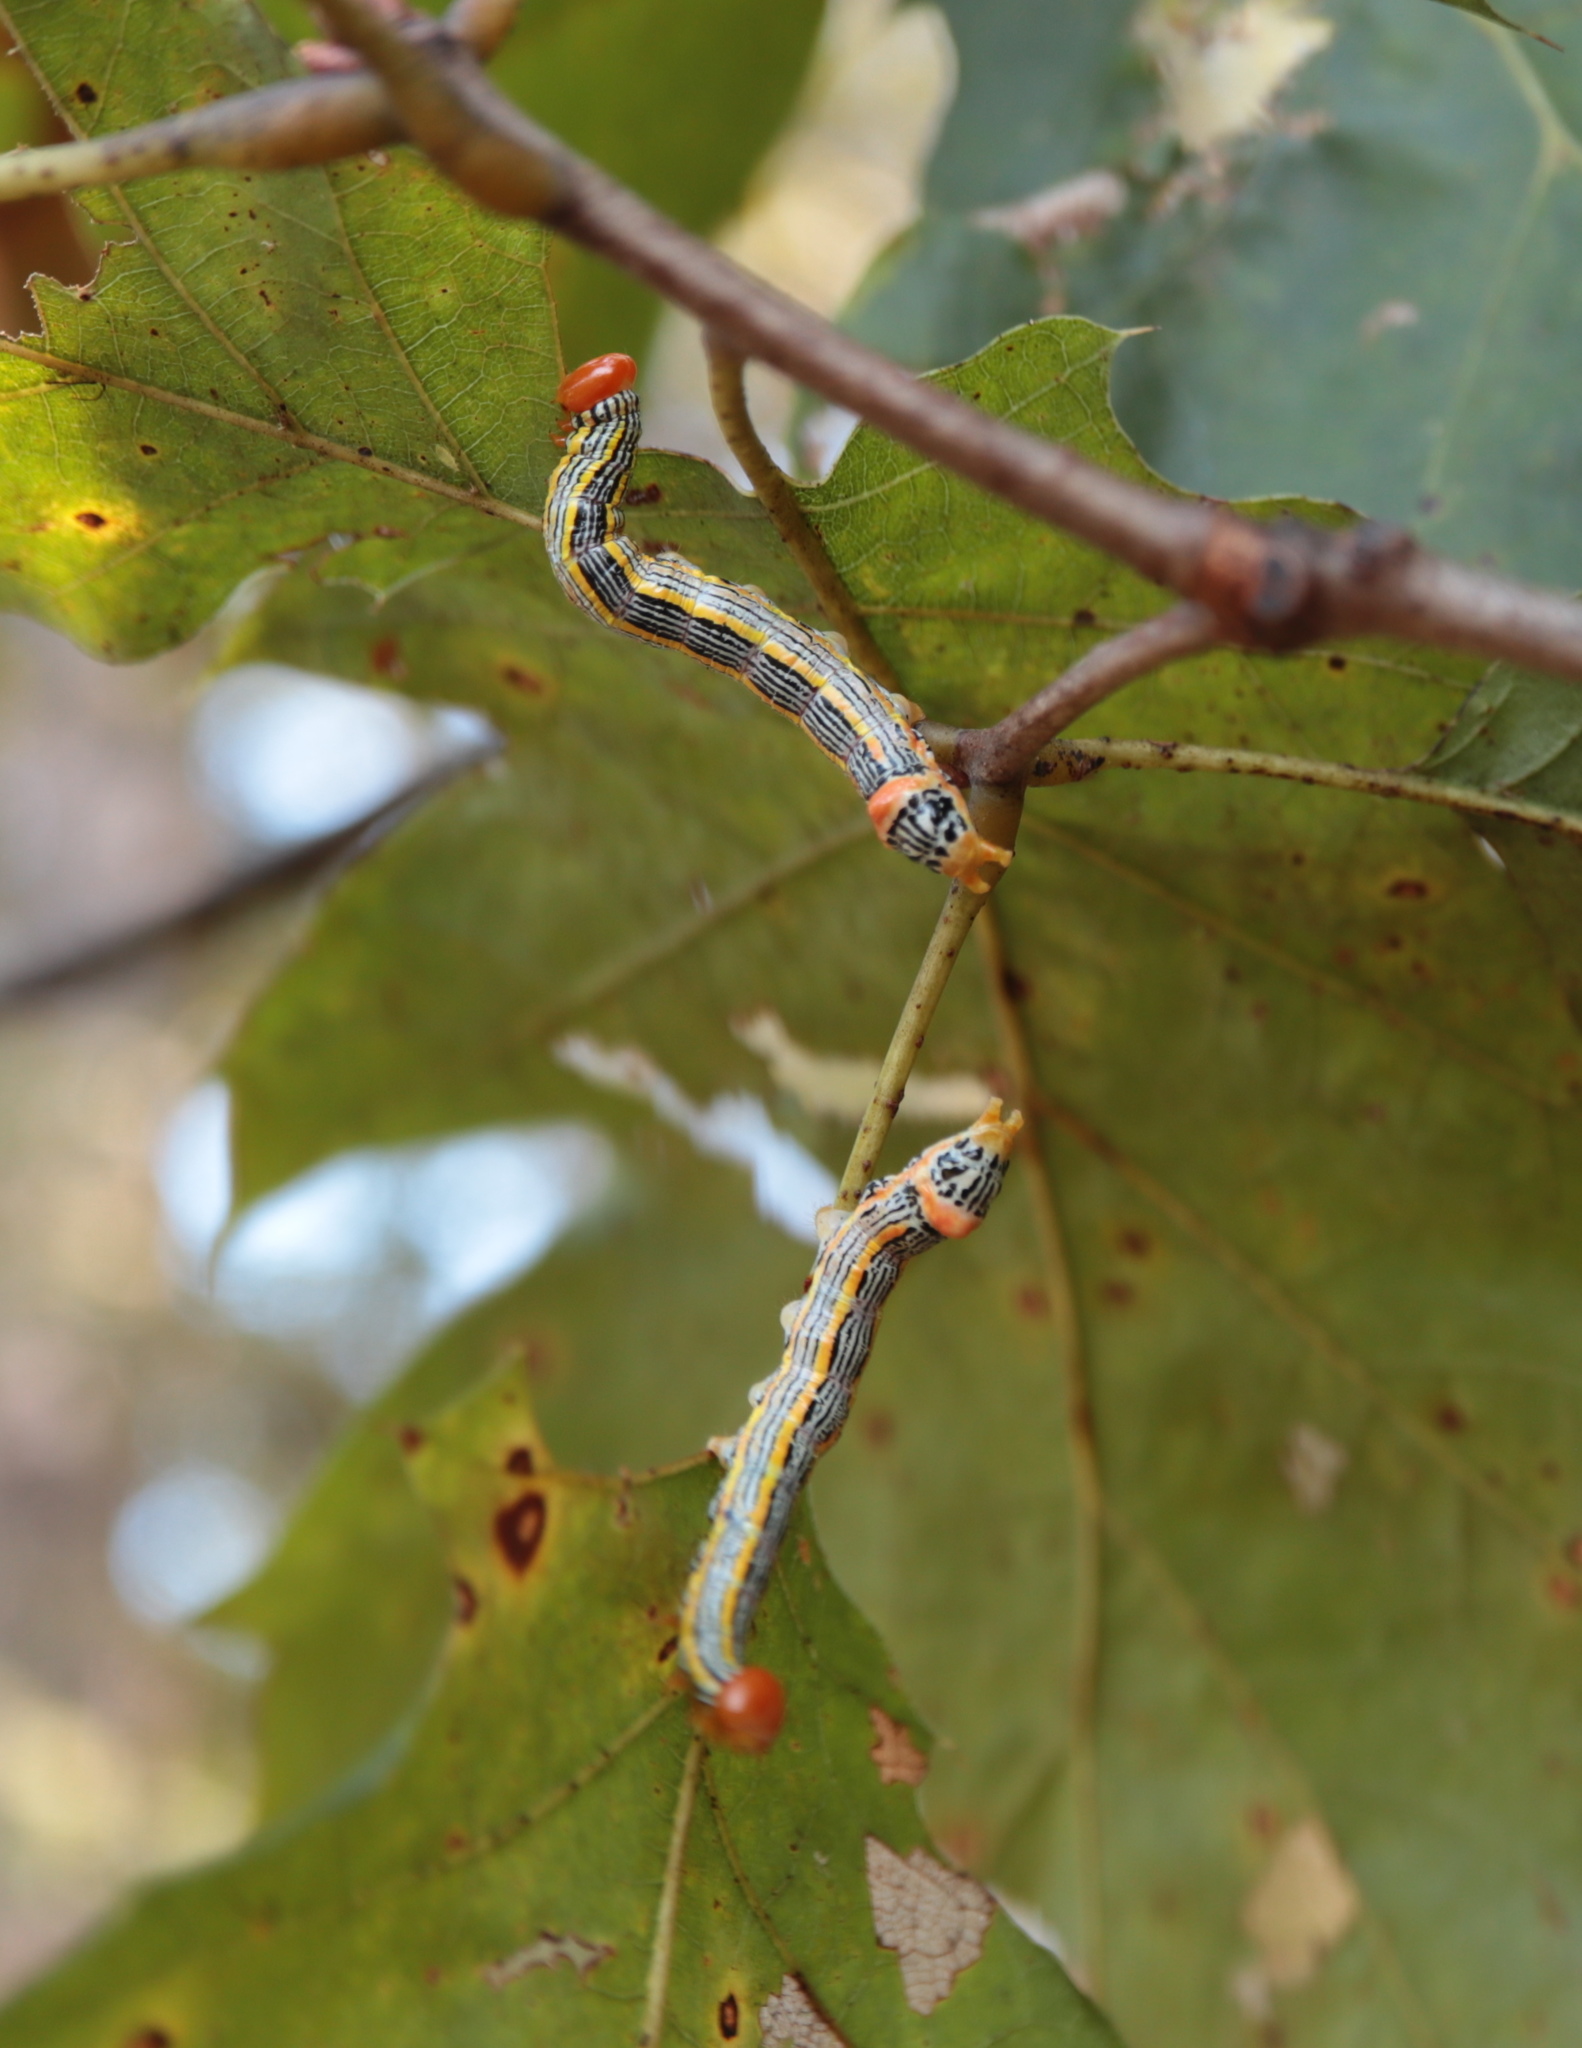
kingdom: Animalia
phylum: Arthropoda
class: Insecta
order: Lepidoptera
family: Notodontidae
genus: Symmerista
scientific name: Symmerista albifrons
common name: White-headed prominent
